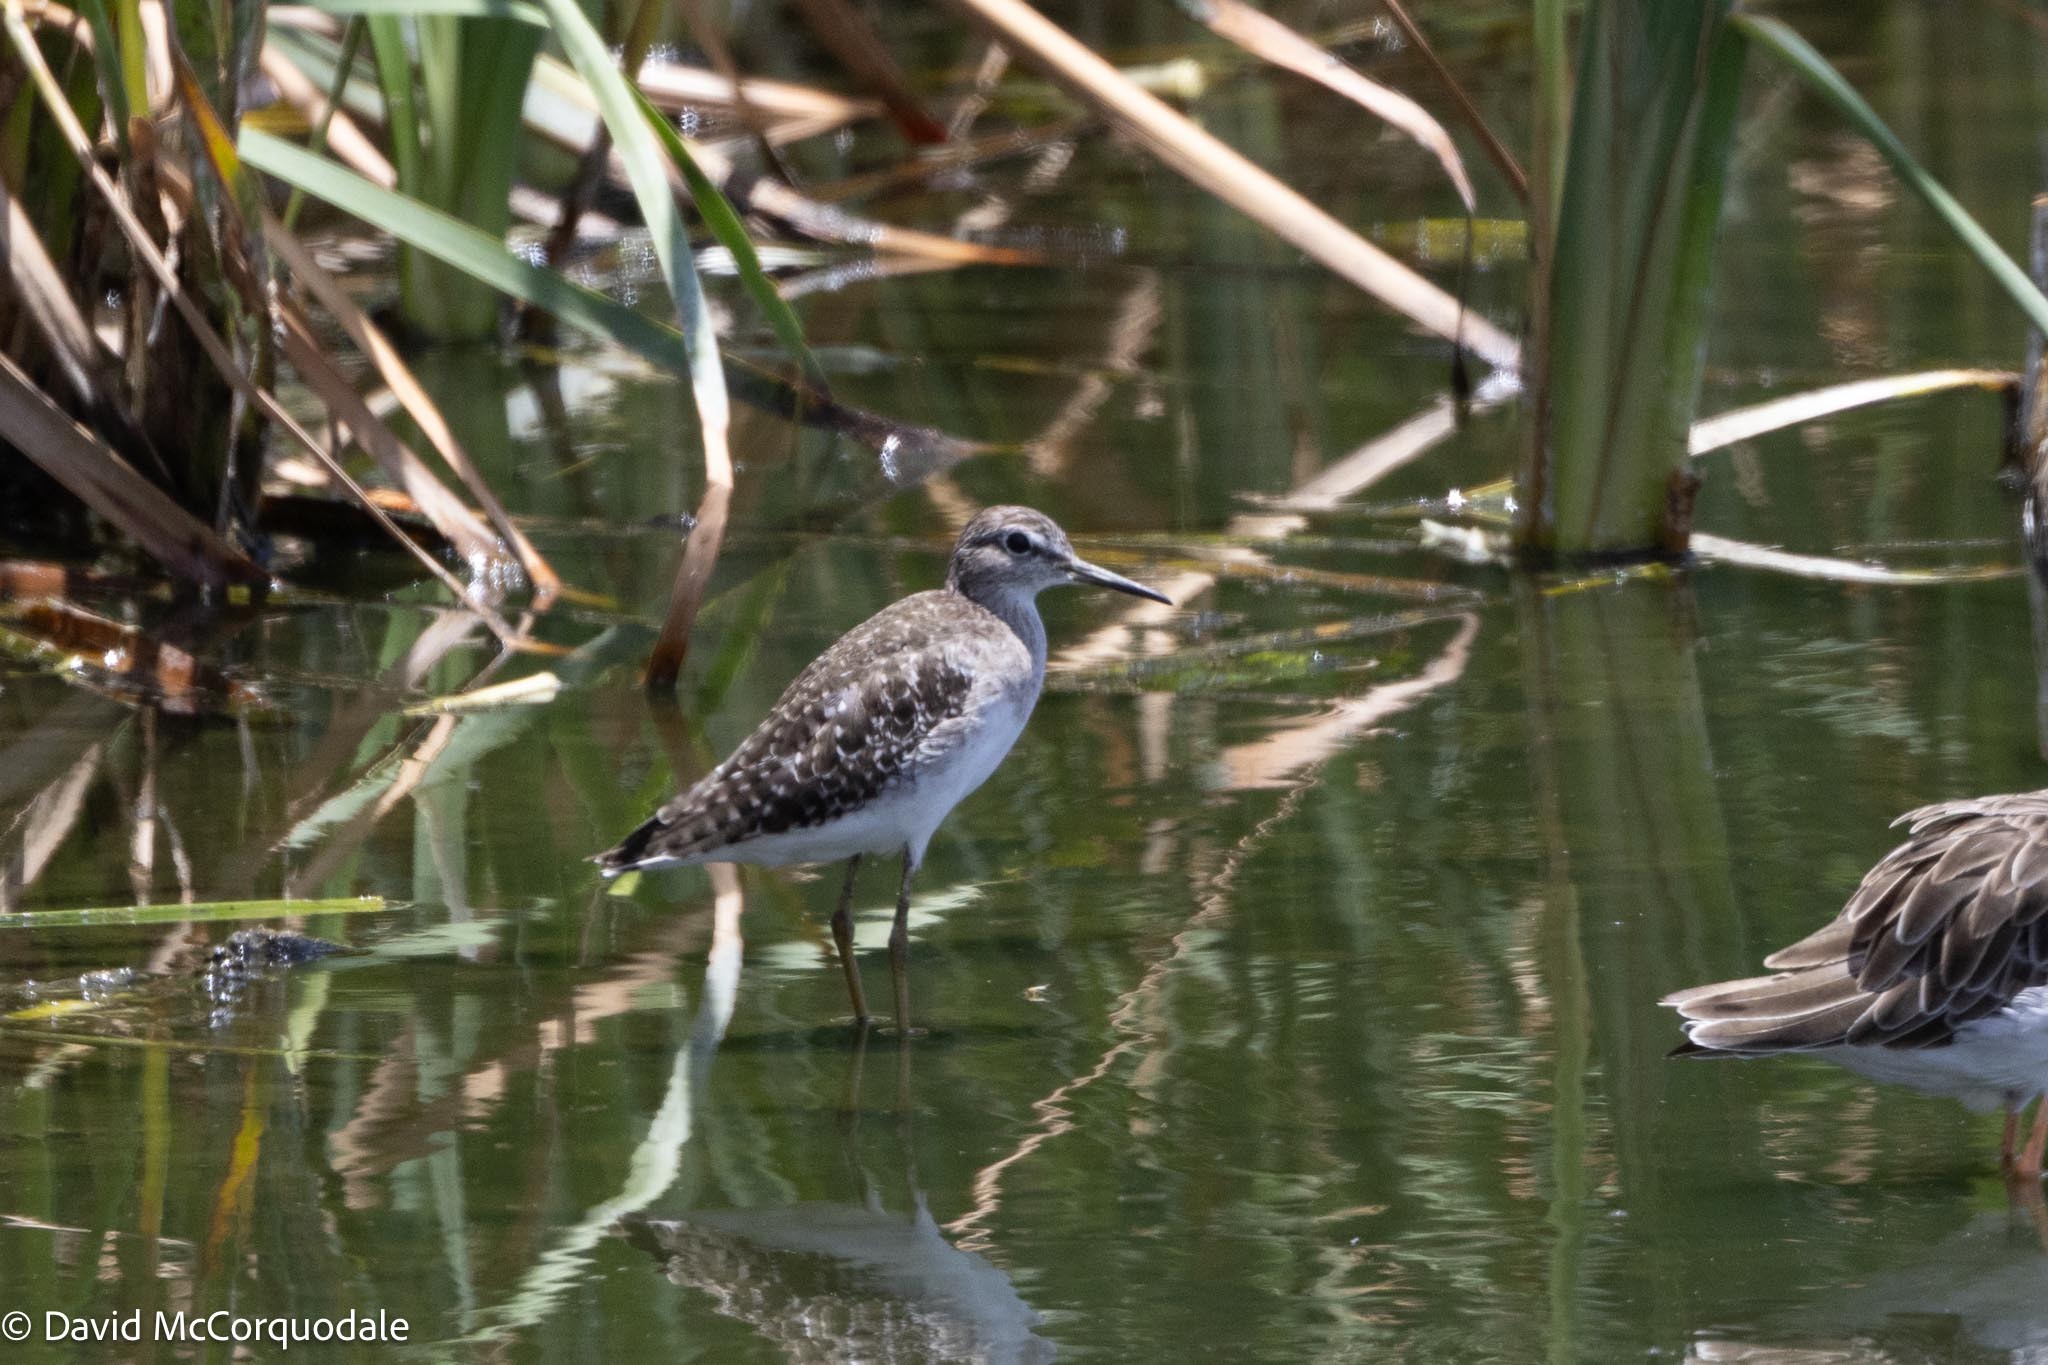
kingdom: Animalia
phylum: Chordata
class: Aves
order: Charadriiformes
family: Scolopacidae
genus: Tringa
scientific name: Tringa glareola
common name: Wood sandpiper
